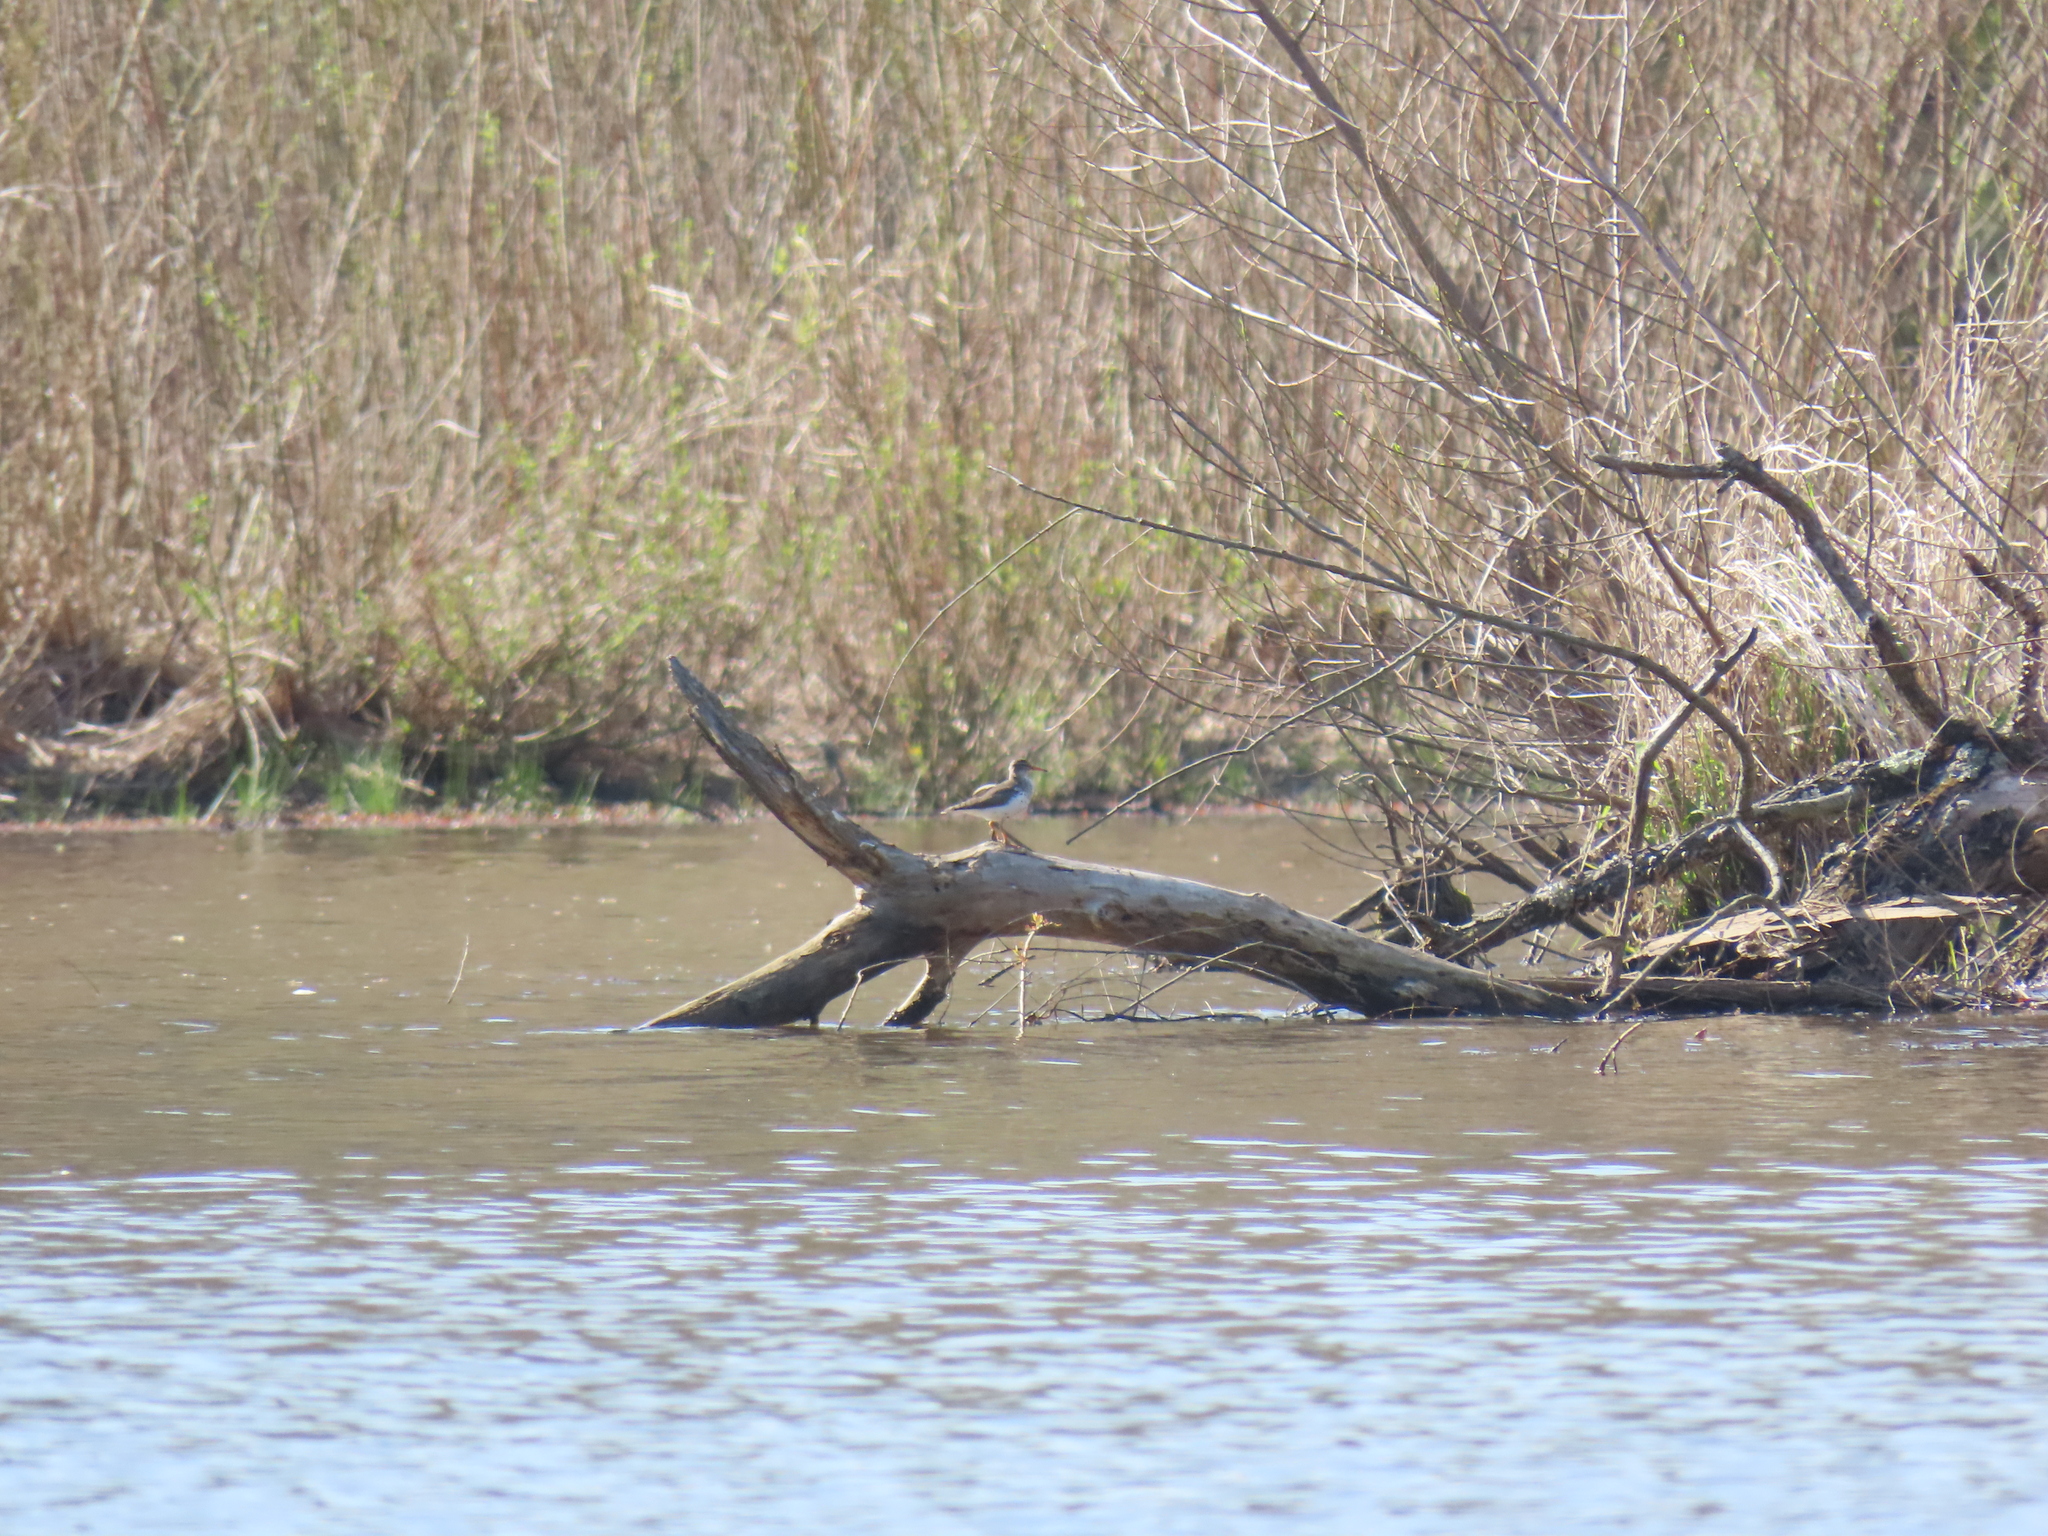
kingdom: Animalia
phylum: Chordata
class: Aves
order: Charadriiformes
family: Scolopacidae
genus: Actitis
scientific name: Actitis macularius
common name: Spotted sandpiper
